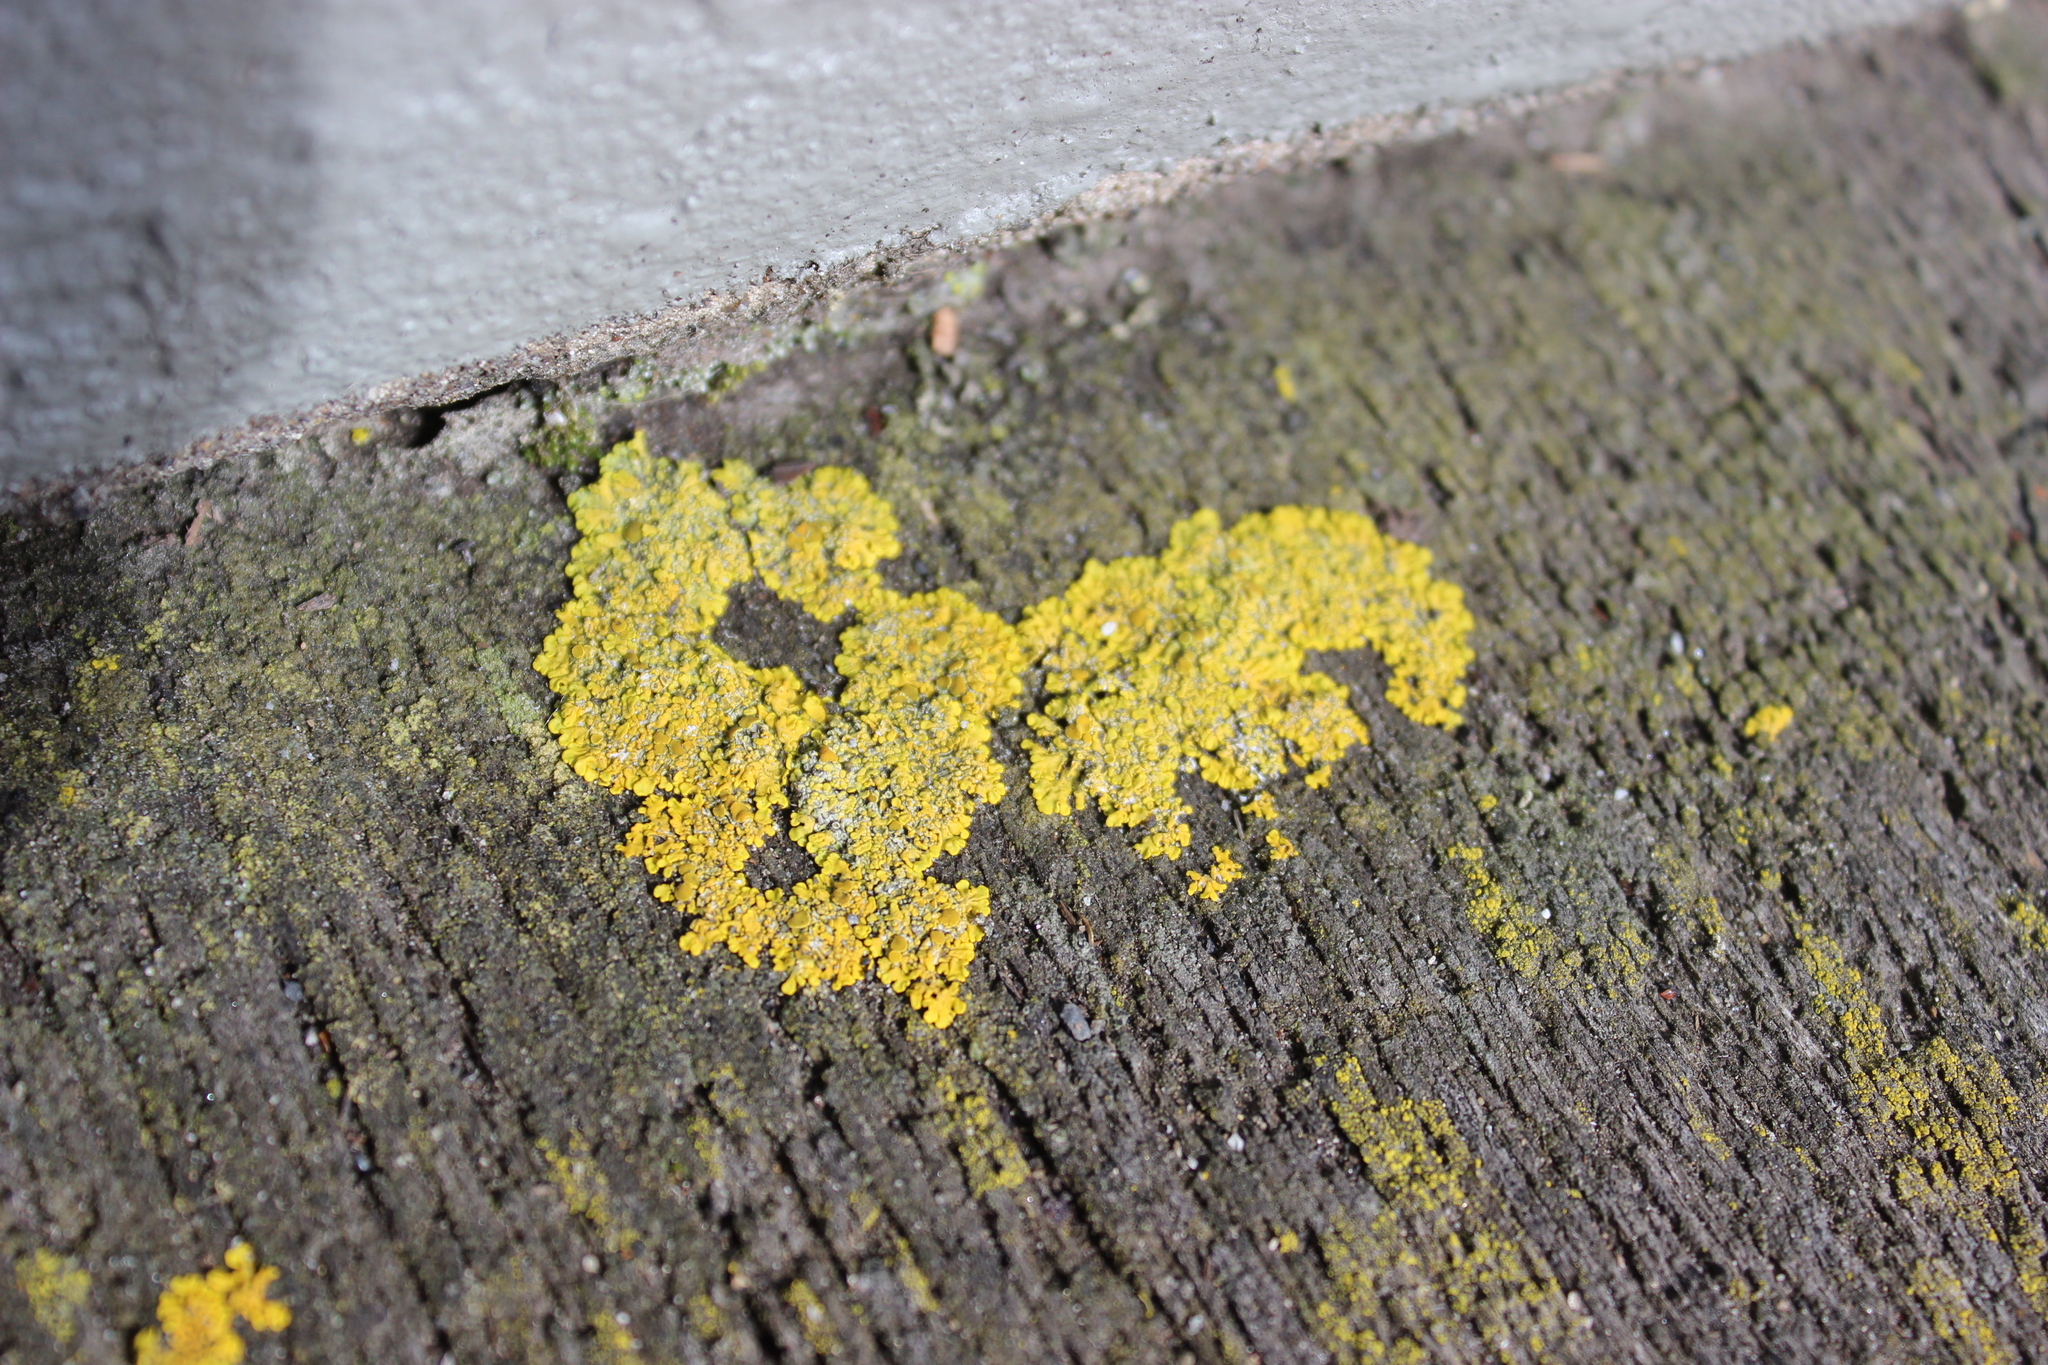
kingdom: Fungi
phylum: Ascomycota
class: Lecanoromycetes
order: Teloschistales
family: Teloschistaceae
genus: Xanthoria
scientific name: Xanthoria parietina
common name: Common orange lichen
